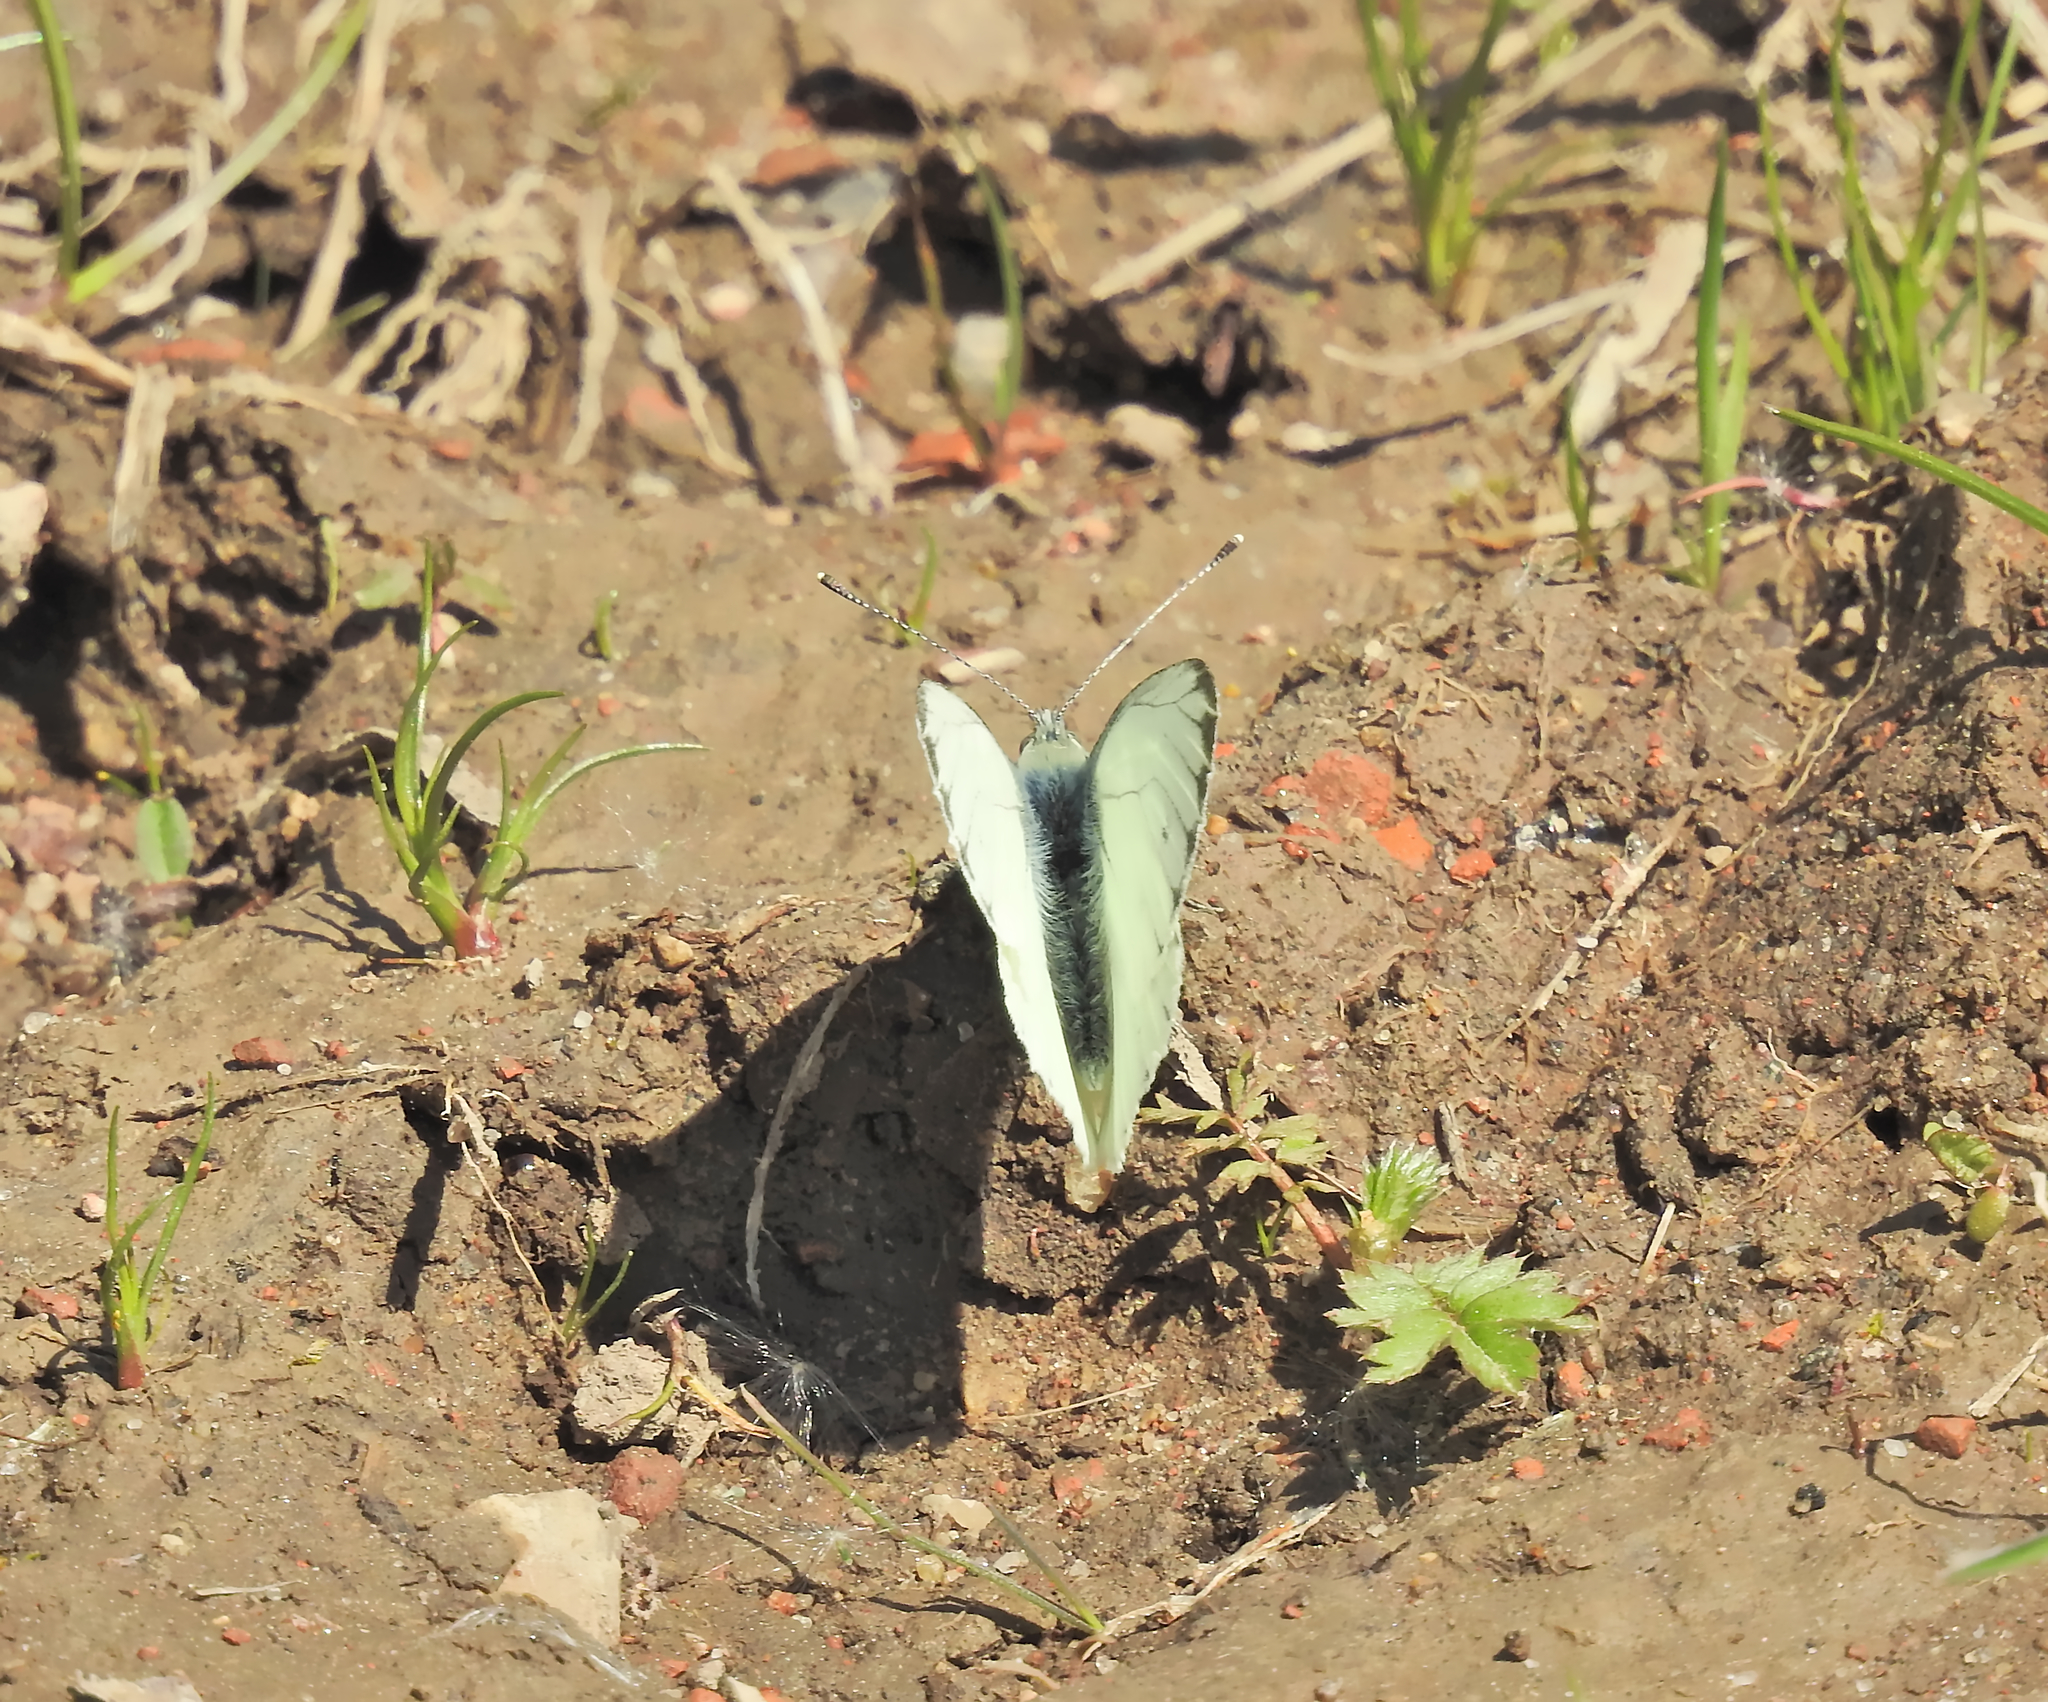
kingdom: Animalia
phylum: Arthropoda
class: Insecta
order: Lepidoptera
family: Pieridae
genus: Pieris
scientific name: Pieris napi
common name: Green-veined white
